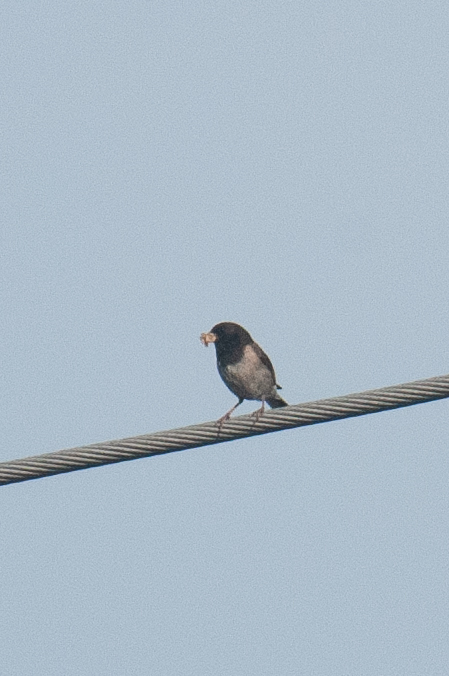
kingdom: Animalia
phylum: Chordata
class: Aves
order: Passeriformes
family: Passerellidae
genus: Junco
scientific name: Junco hyemalis
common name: Dark-eyed junco
